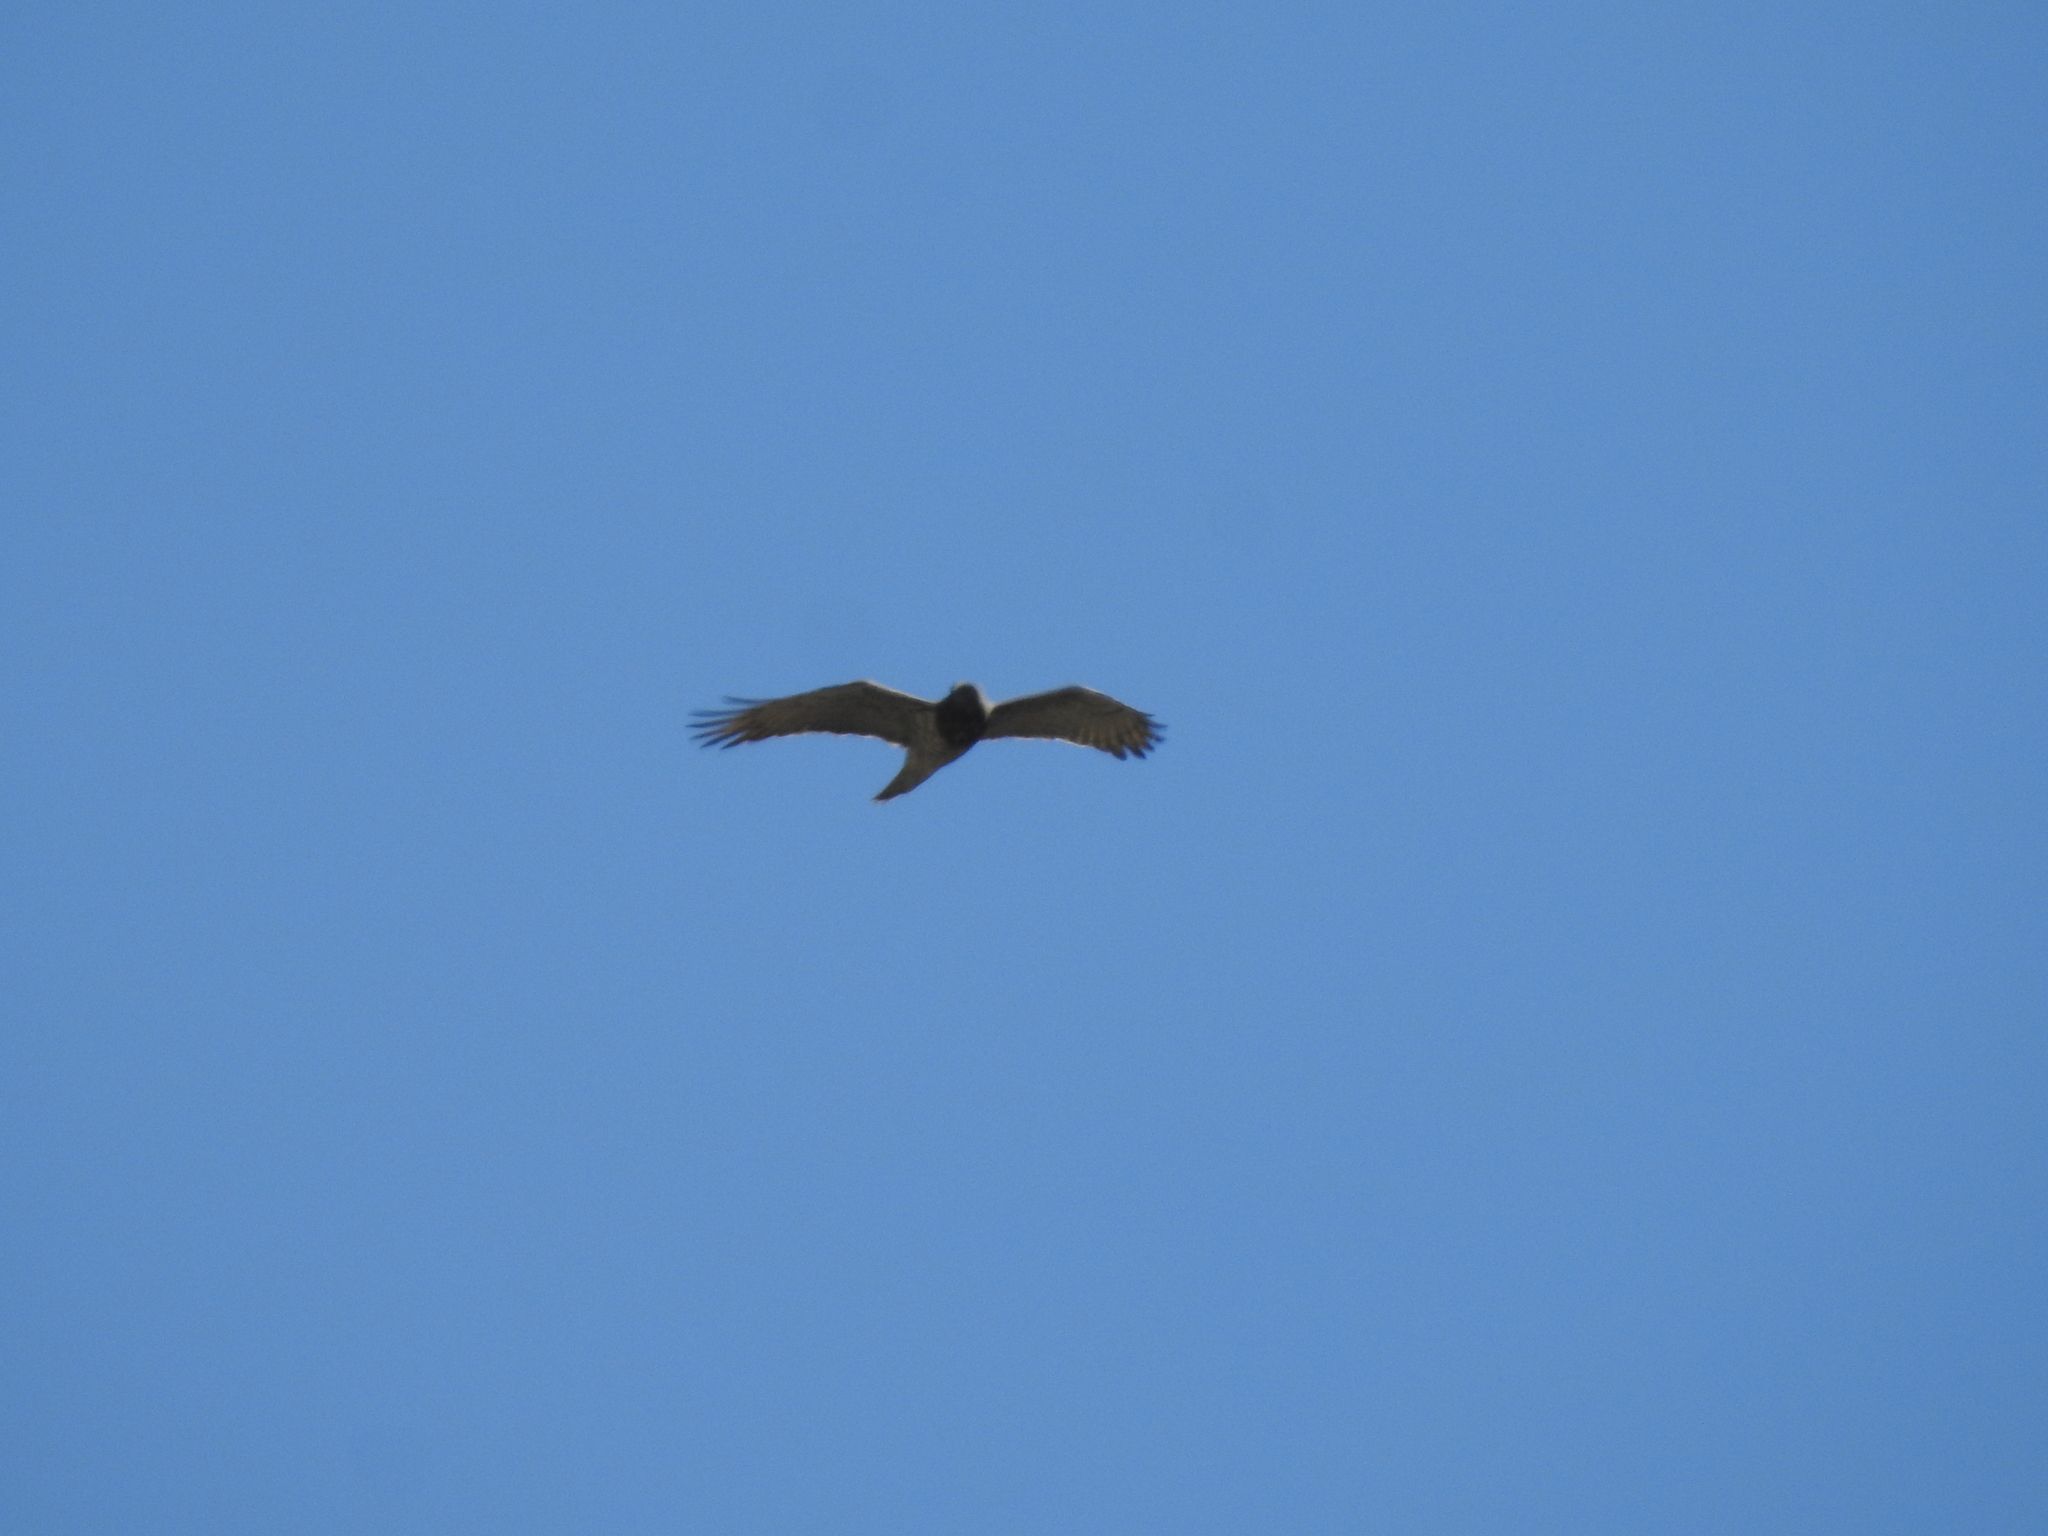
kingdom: Animalia
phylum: Chordata
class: Aves
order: Accipitriformes
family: Accipitridae
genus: Circaetus
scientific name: Circaetus gallicus
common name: Short-toed snake eagle
